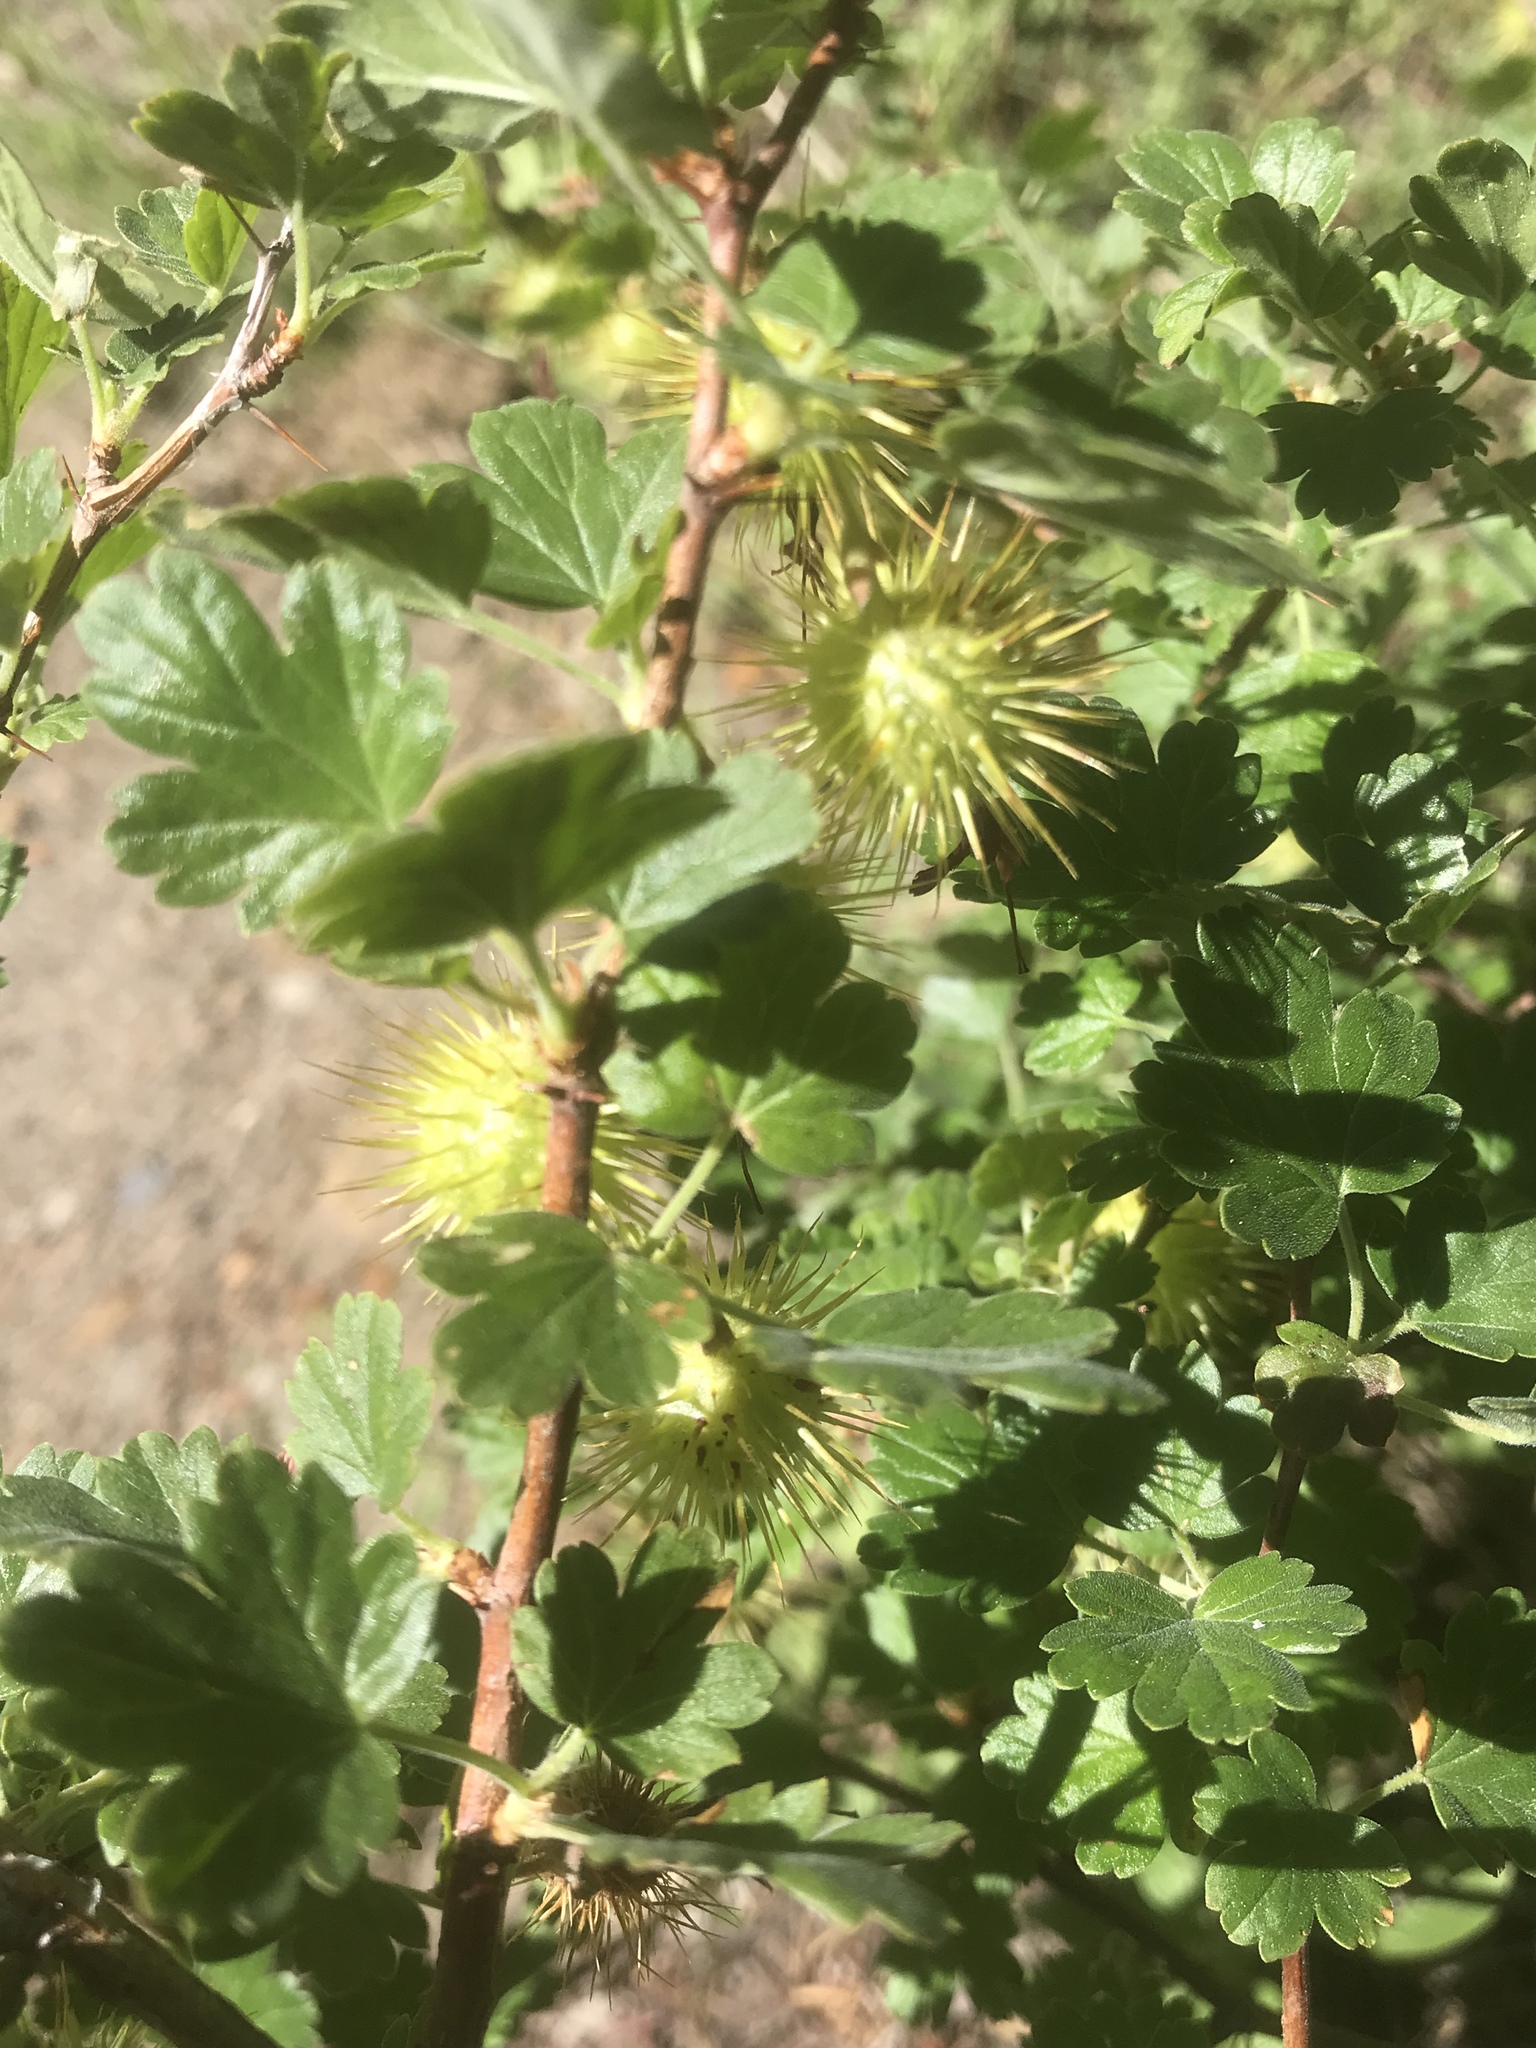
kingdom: Plantae
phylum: Tracheophyta
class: Magnoliopsida
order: Saxifragales
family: Grossulariaceae
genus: Ribes
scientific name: Ribes roezlii
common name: Sierra gooseberry
